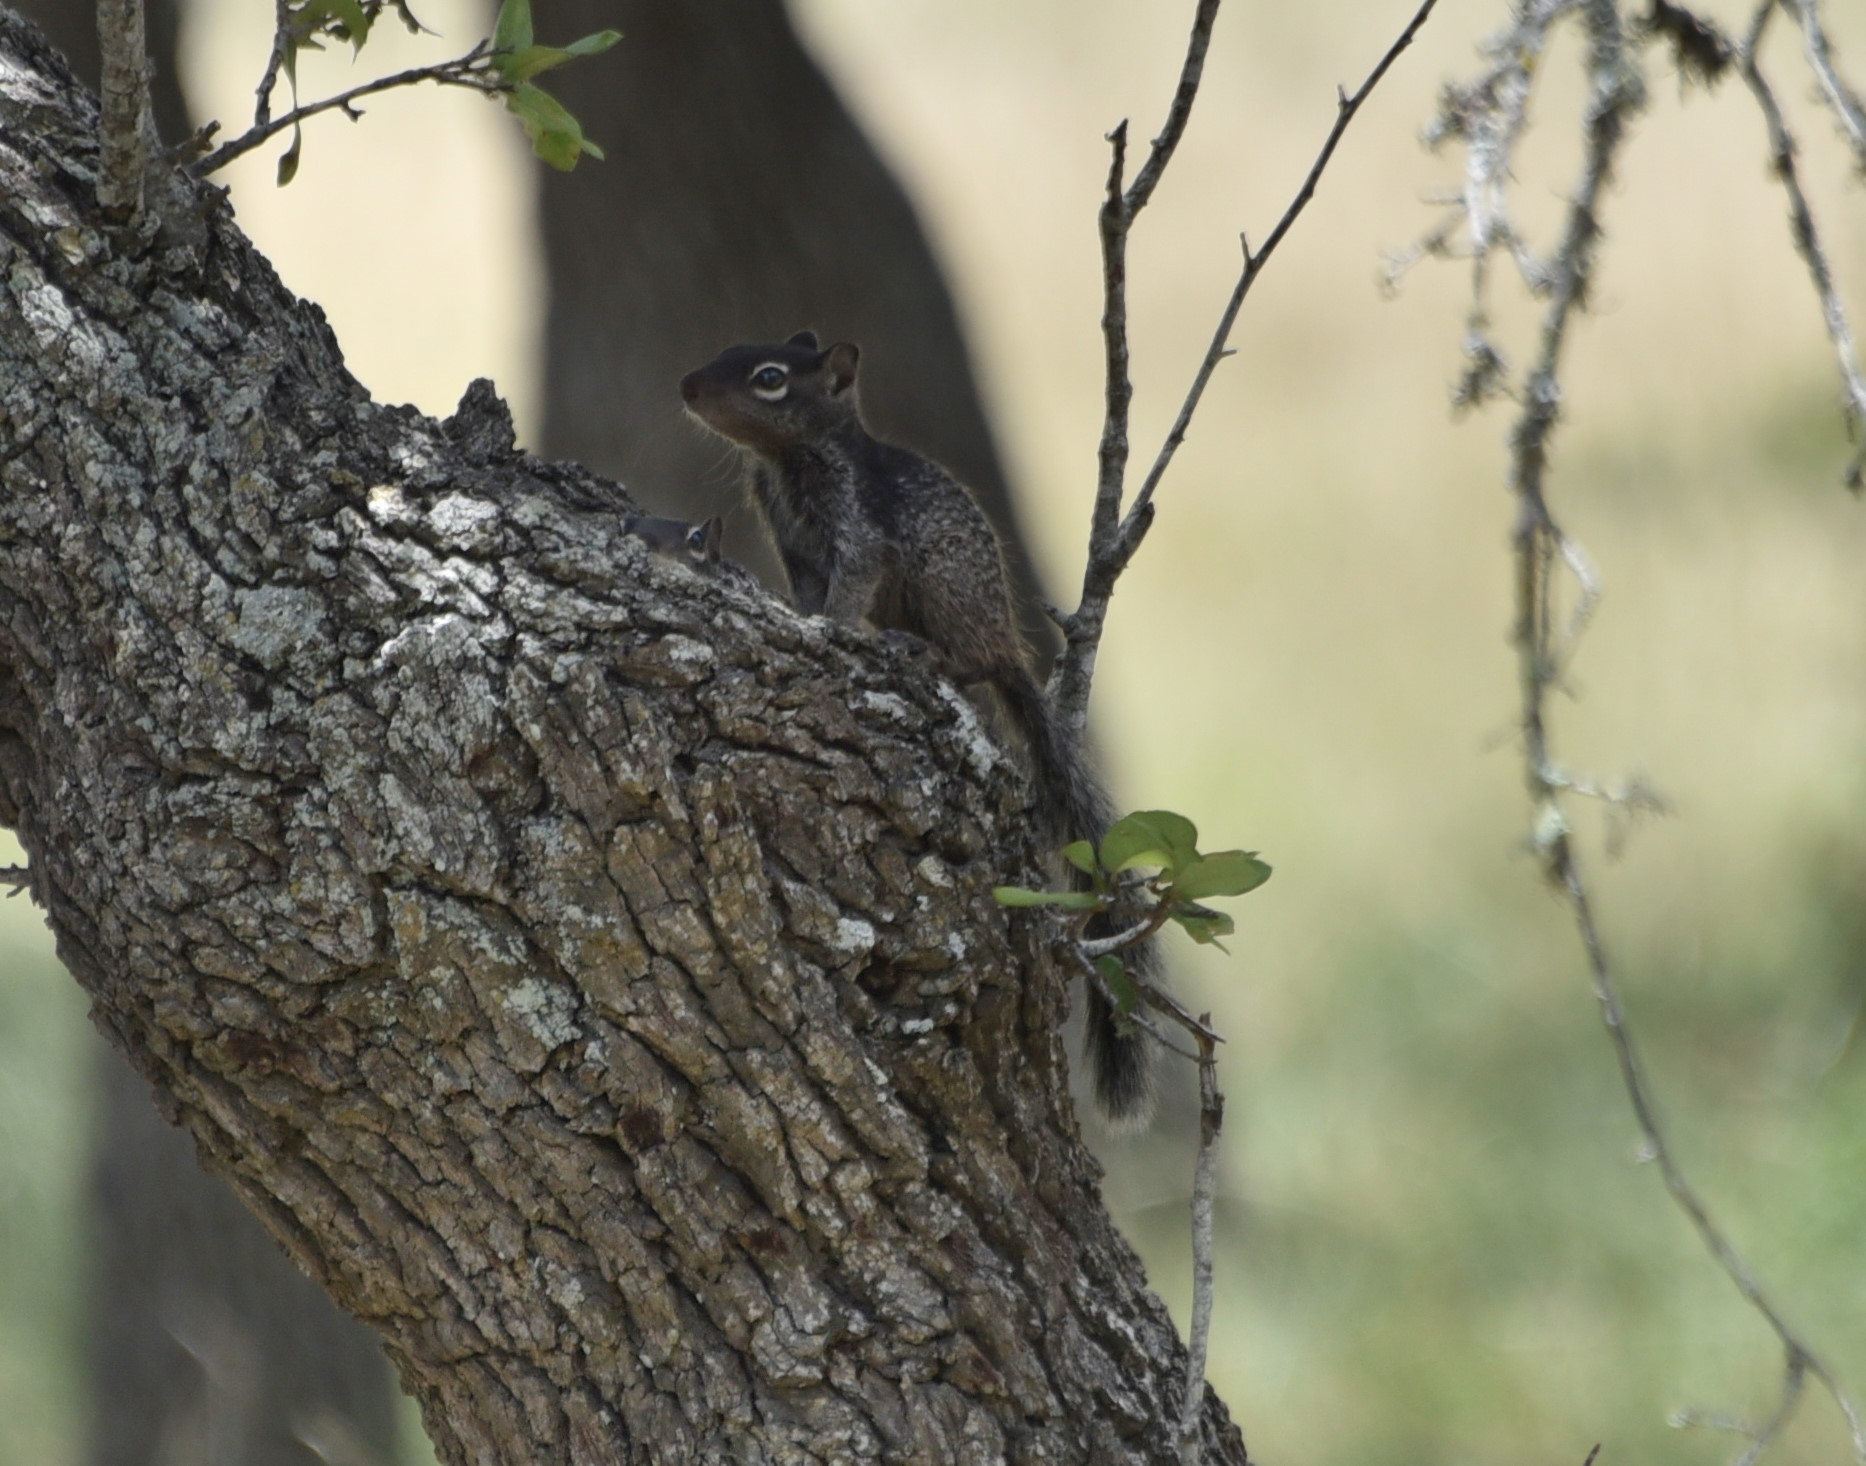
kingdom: Animalia
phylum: Chordata
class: Mammalia
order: Rodentia
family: Sciuridae
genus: Otospermophilus
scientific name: Otospermophilus variegatus
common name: Rock squirrel
